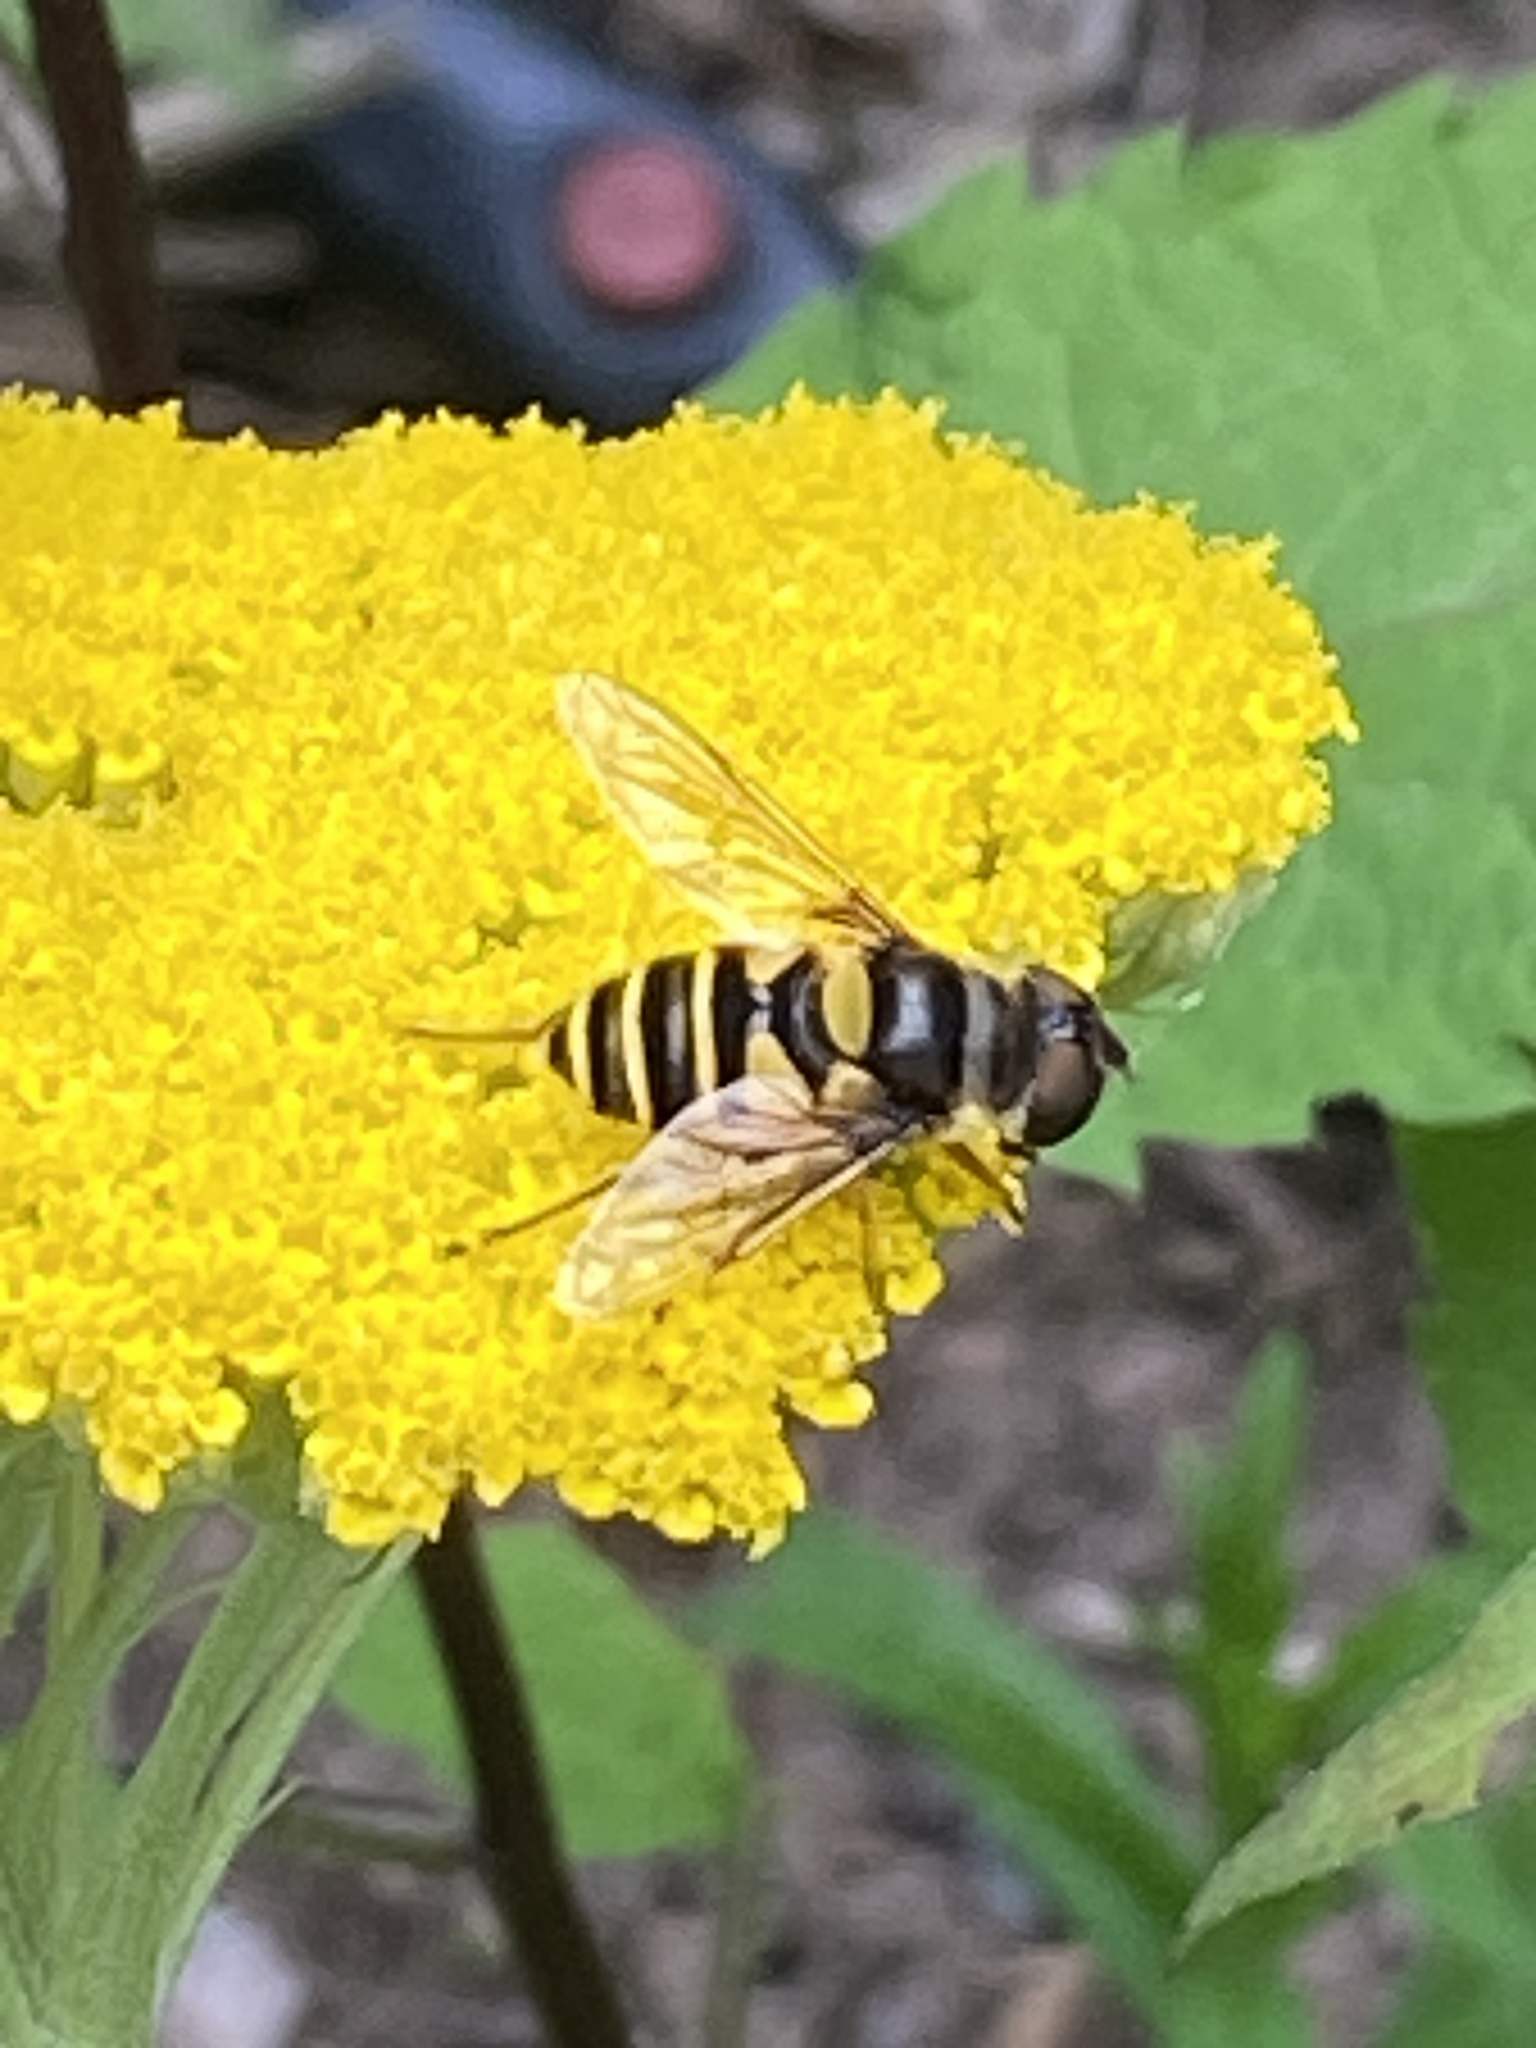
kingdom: Animalia
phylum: Arthropoda
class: Insecta
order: Diptera
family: Syrphidae
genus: Eristalis
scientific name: Eristalis transversa
